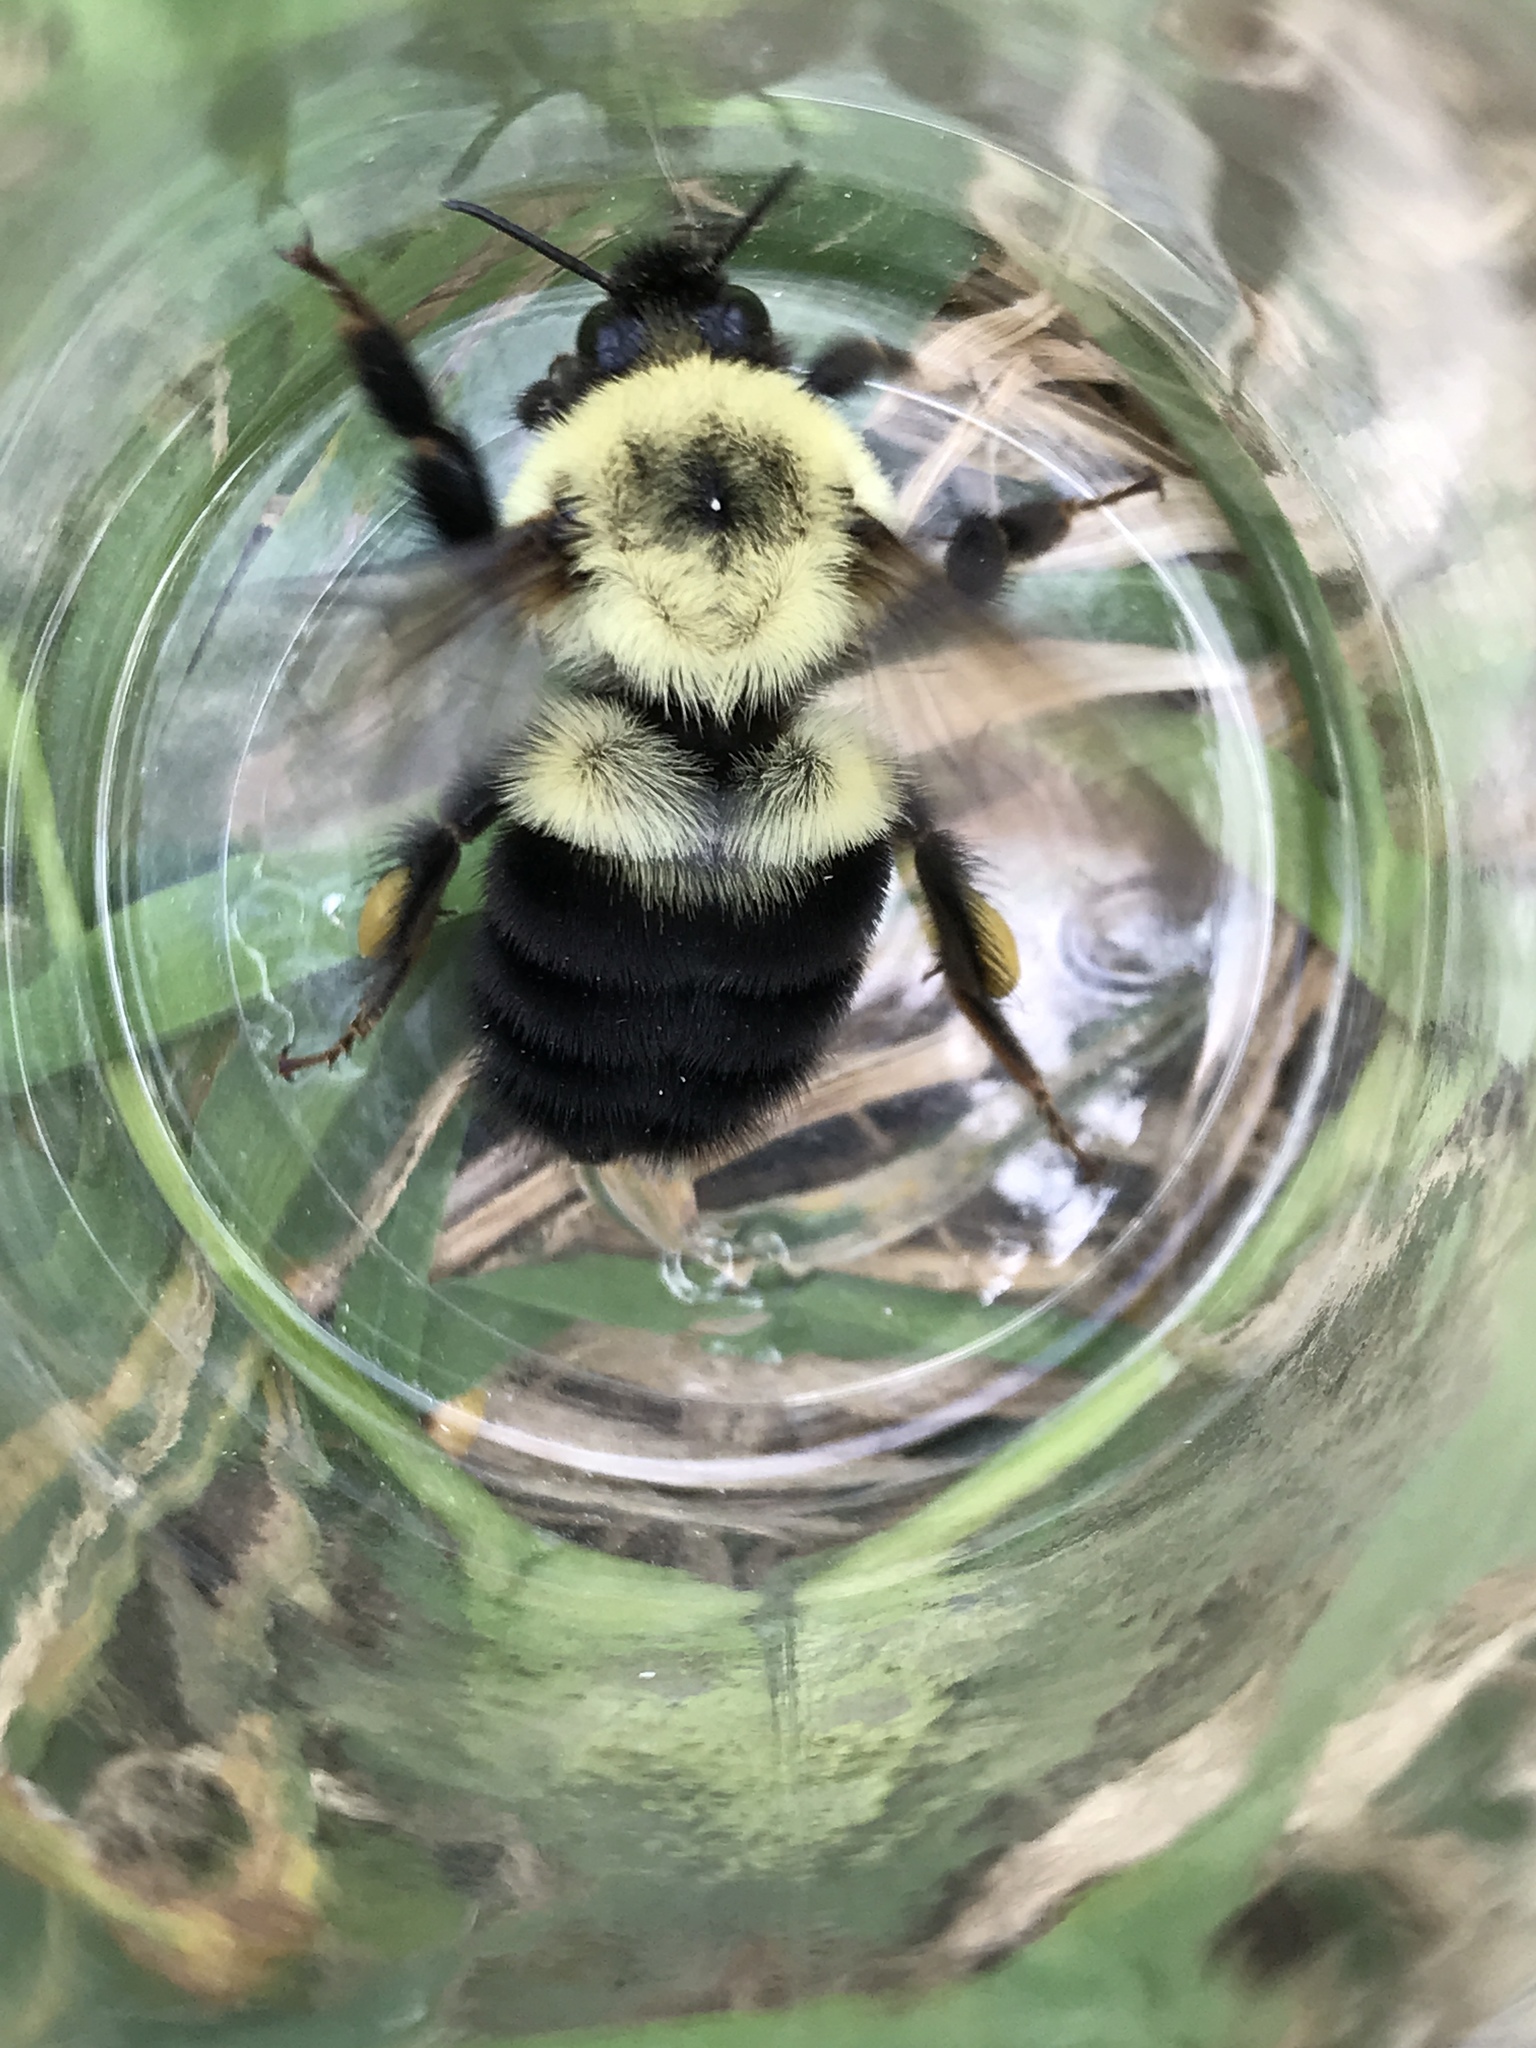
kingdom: Animalia
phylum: Arthropoda
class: Insecta
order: Hymenoptera
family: Apidae
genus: Bombus
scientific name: Bombus bimaculatus
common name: Two-spotted bumble bee
